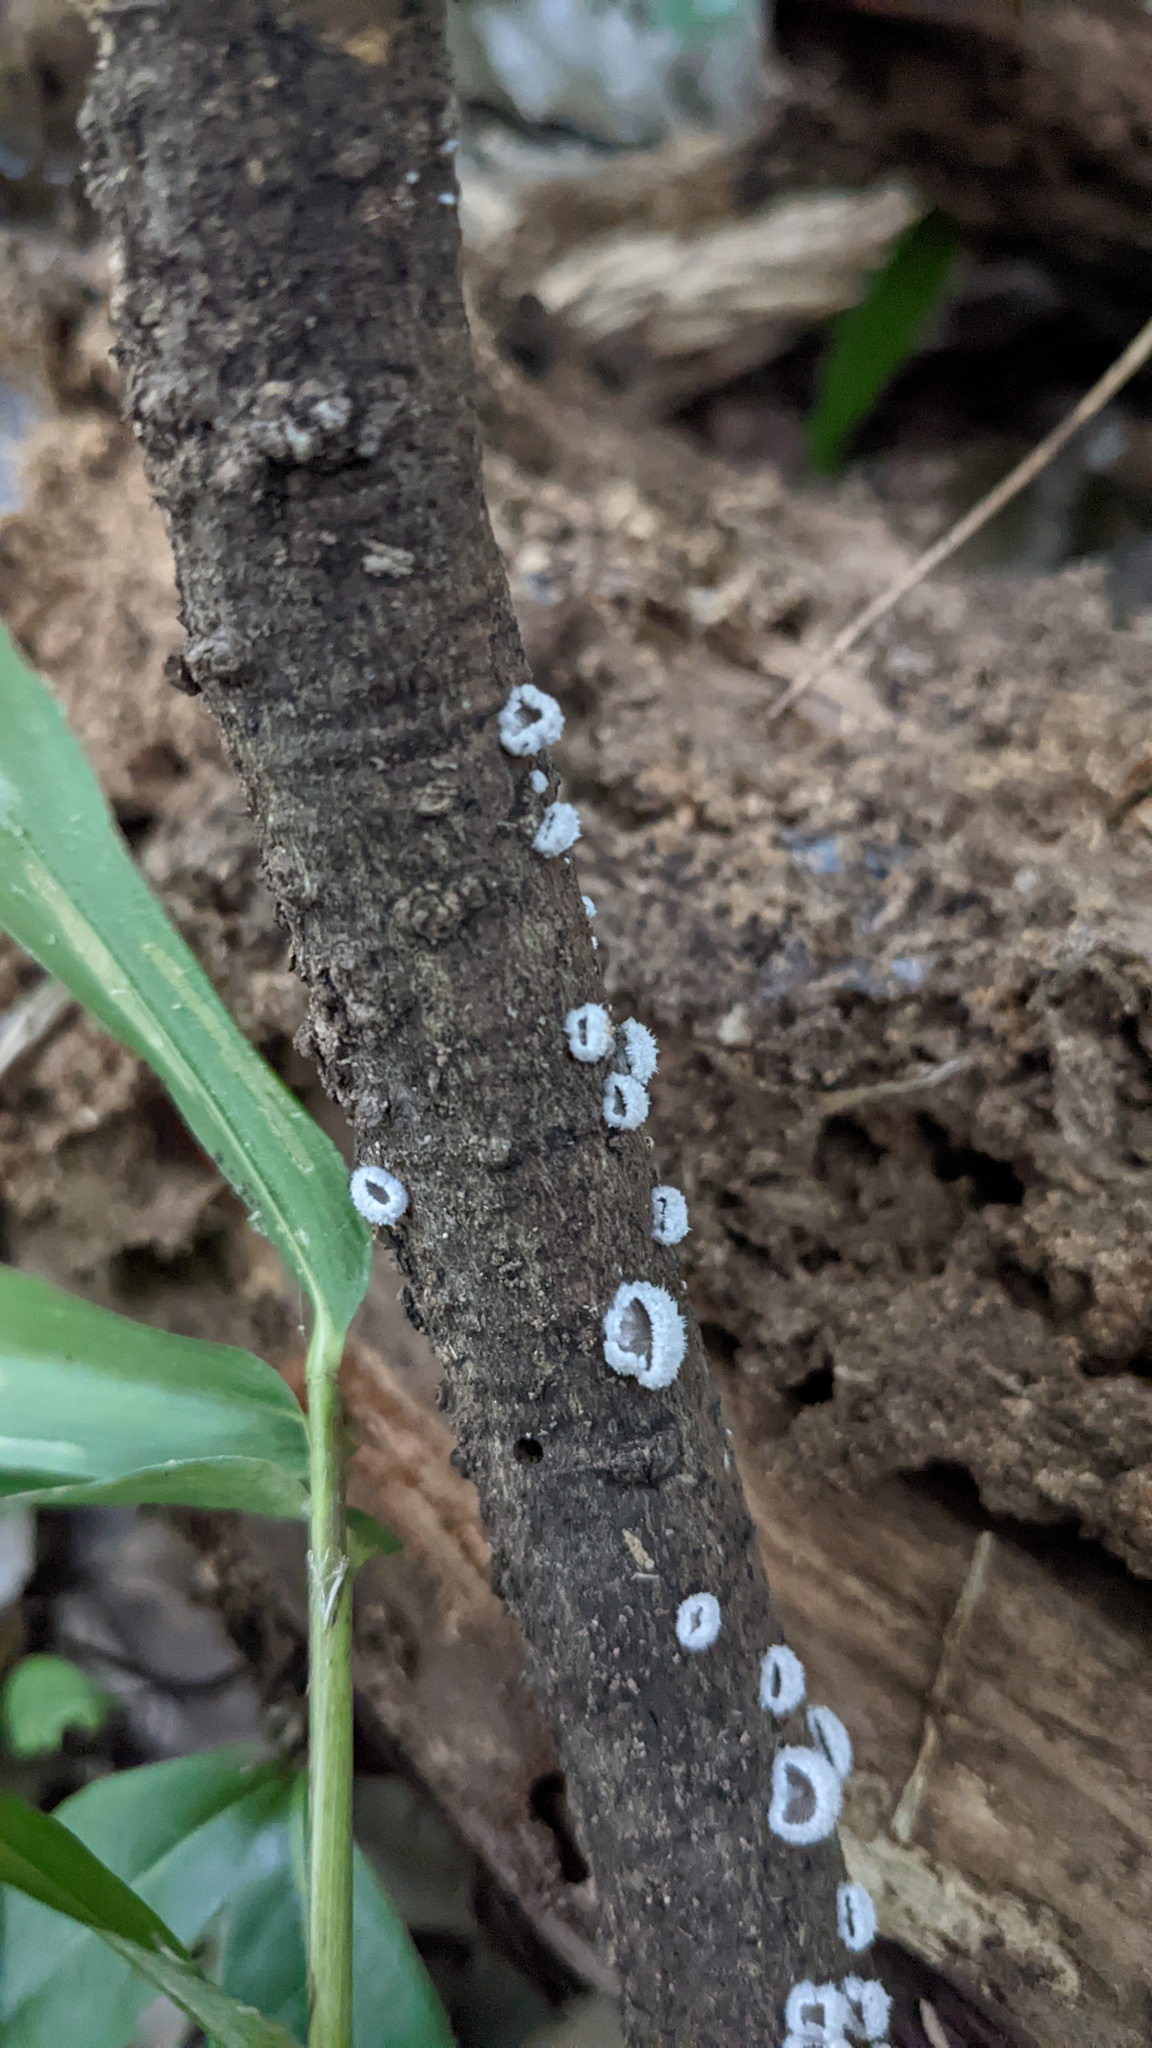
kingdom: Fungi
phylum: Basidiomycota
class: Agaricomycetes
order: Agaricales
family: Schizophyllaceae
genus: Schizophyllum
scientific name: Schizophyllum commune
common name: Common porecrust
